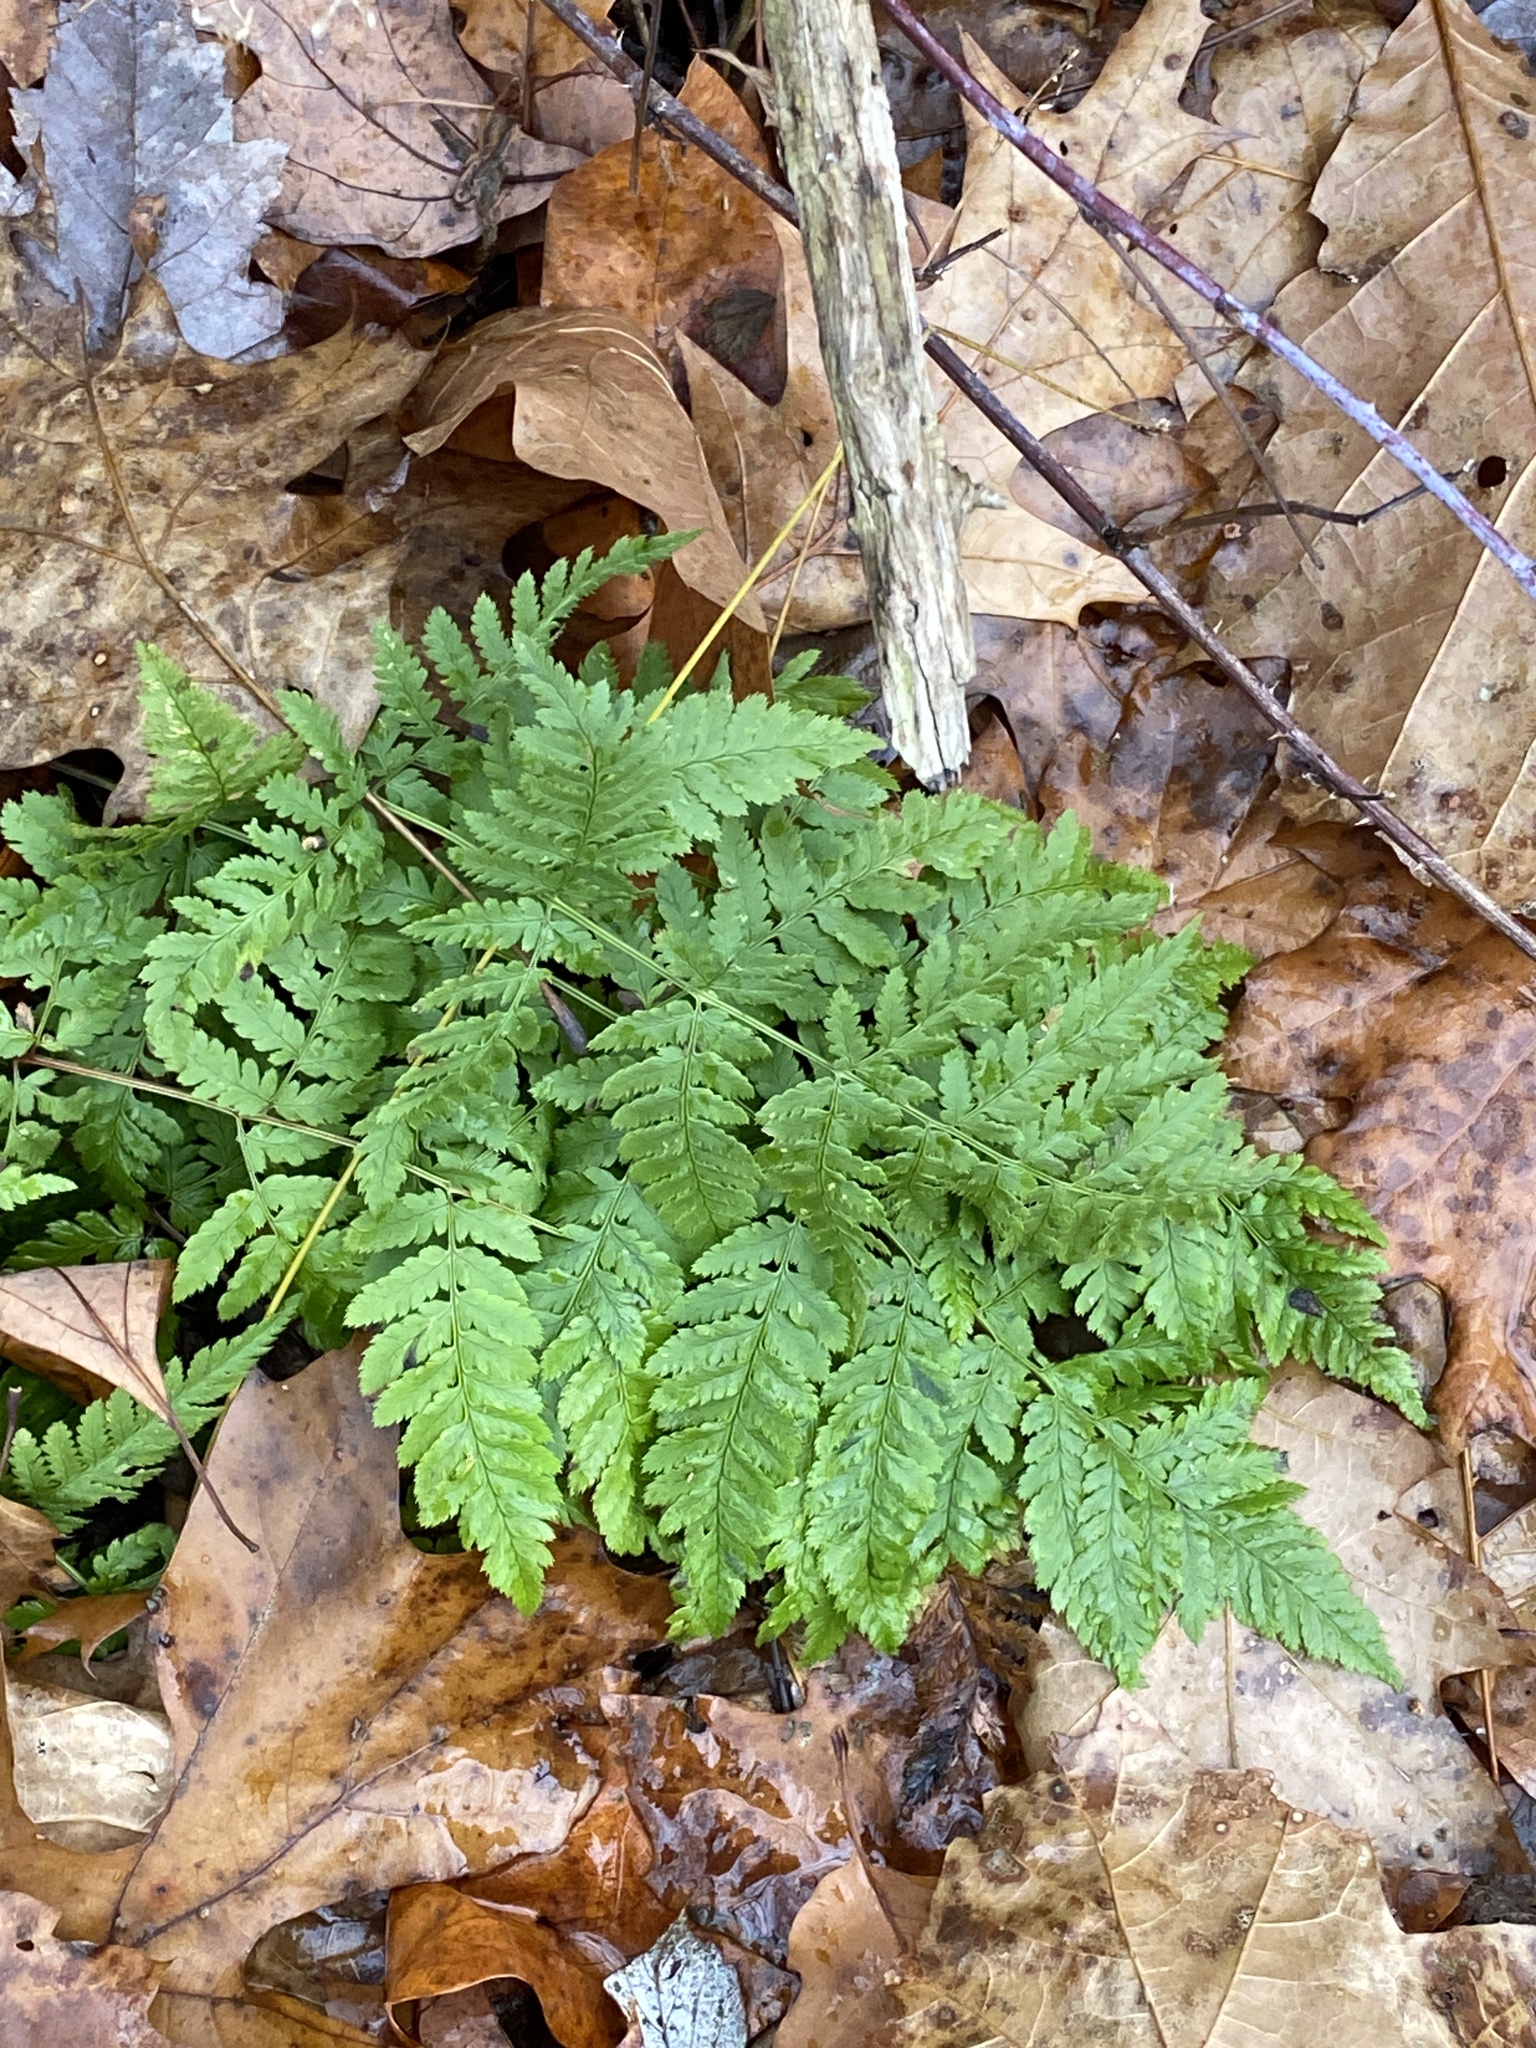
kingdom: Plantae
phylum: Tracheophyta
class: Polypodiopsida
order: Polypodiales
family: Dryopteridaceae
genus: Dryopteris
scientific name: Dryopteris carthusiana
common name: Narrow buckler-fern
